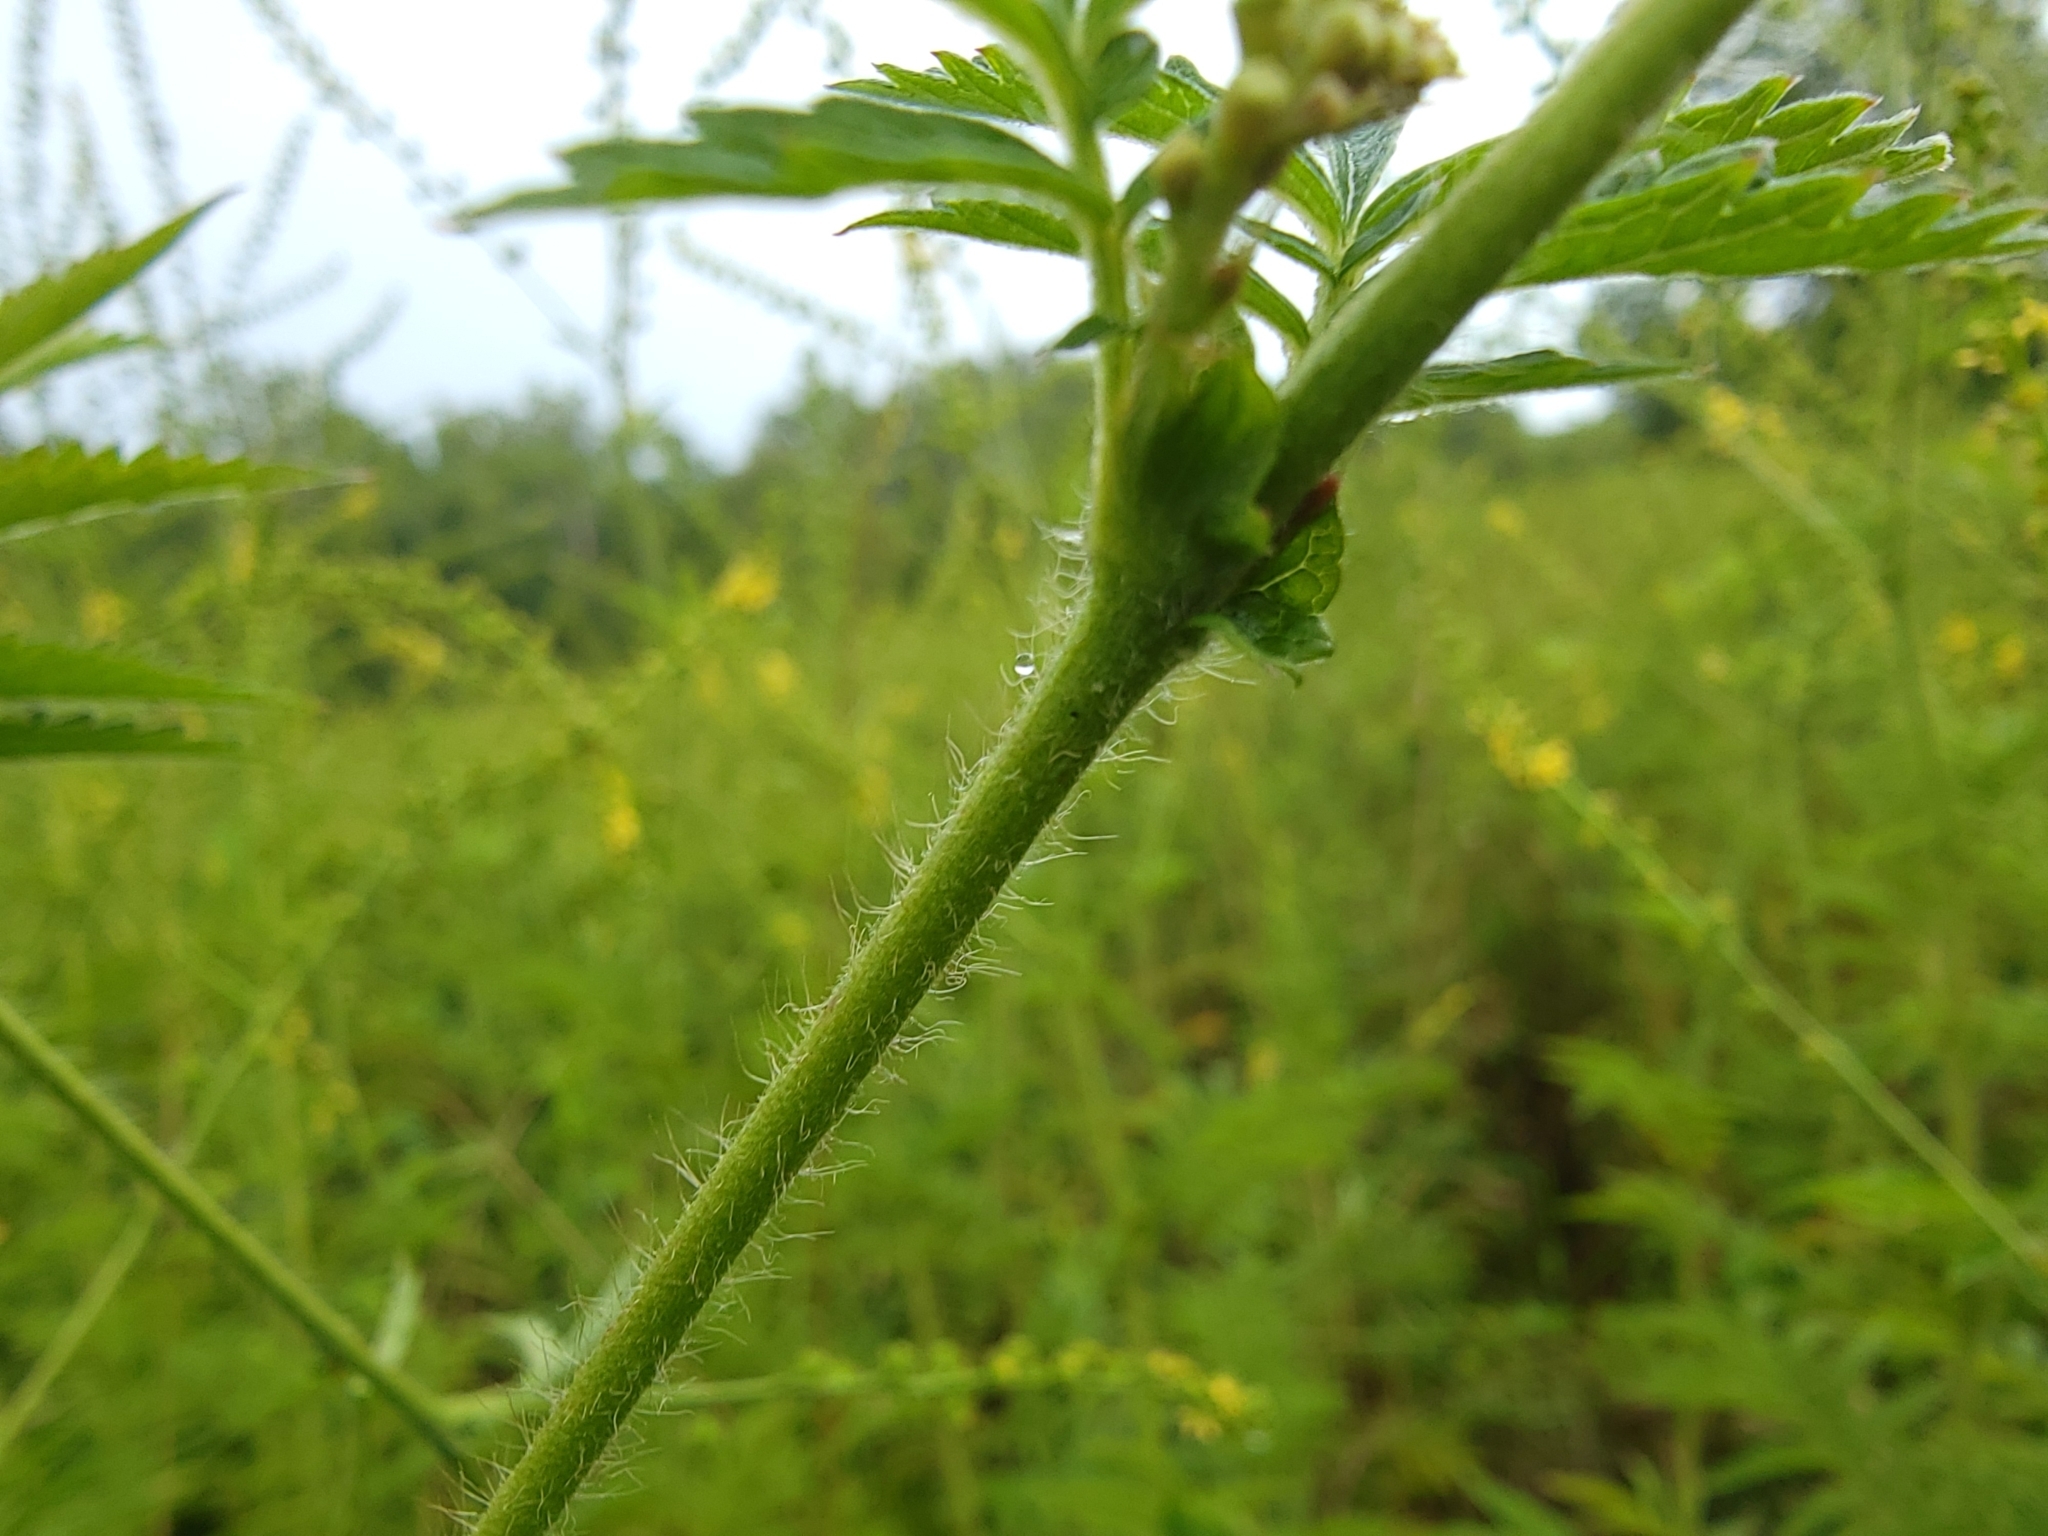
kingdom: Plantae
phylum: Tracheophyta
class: Magnoliopsida
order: Rosales
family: Rosaceae
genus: Agrimonia
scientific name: Agrimonia parviflora
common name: Harvest-lice
